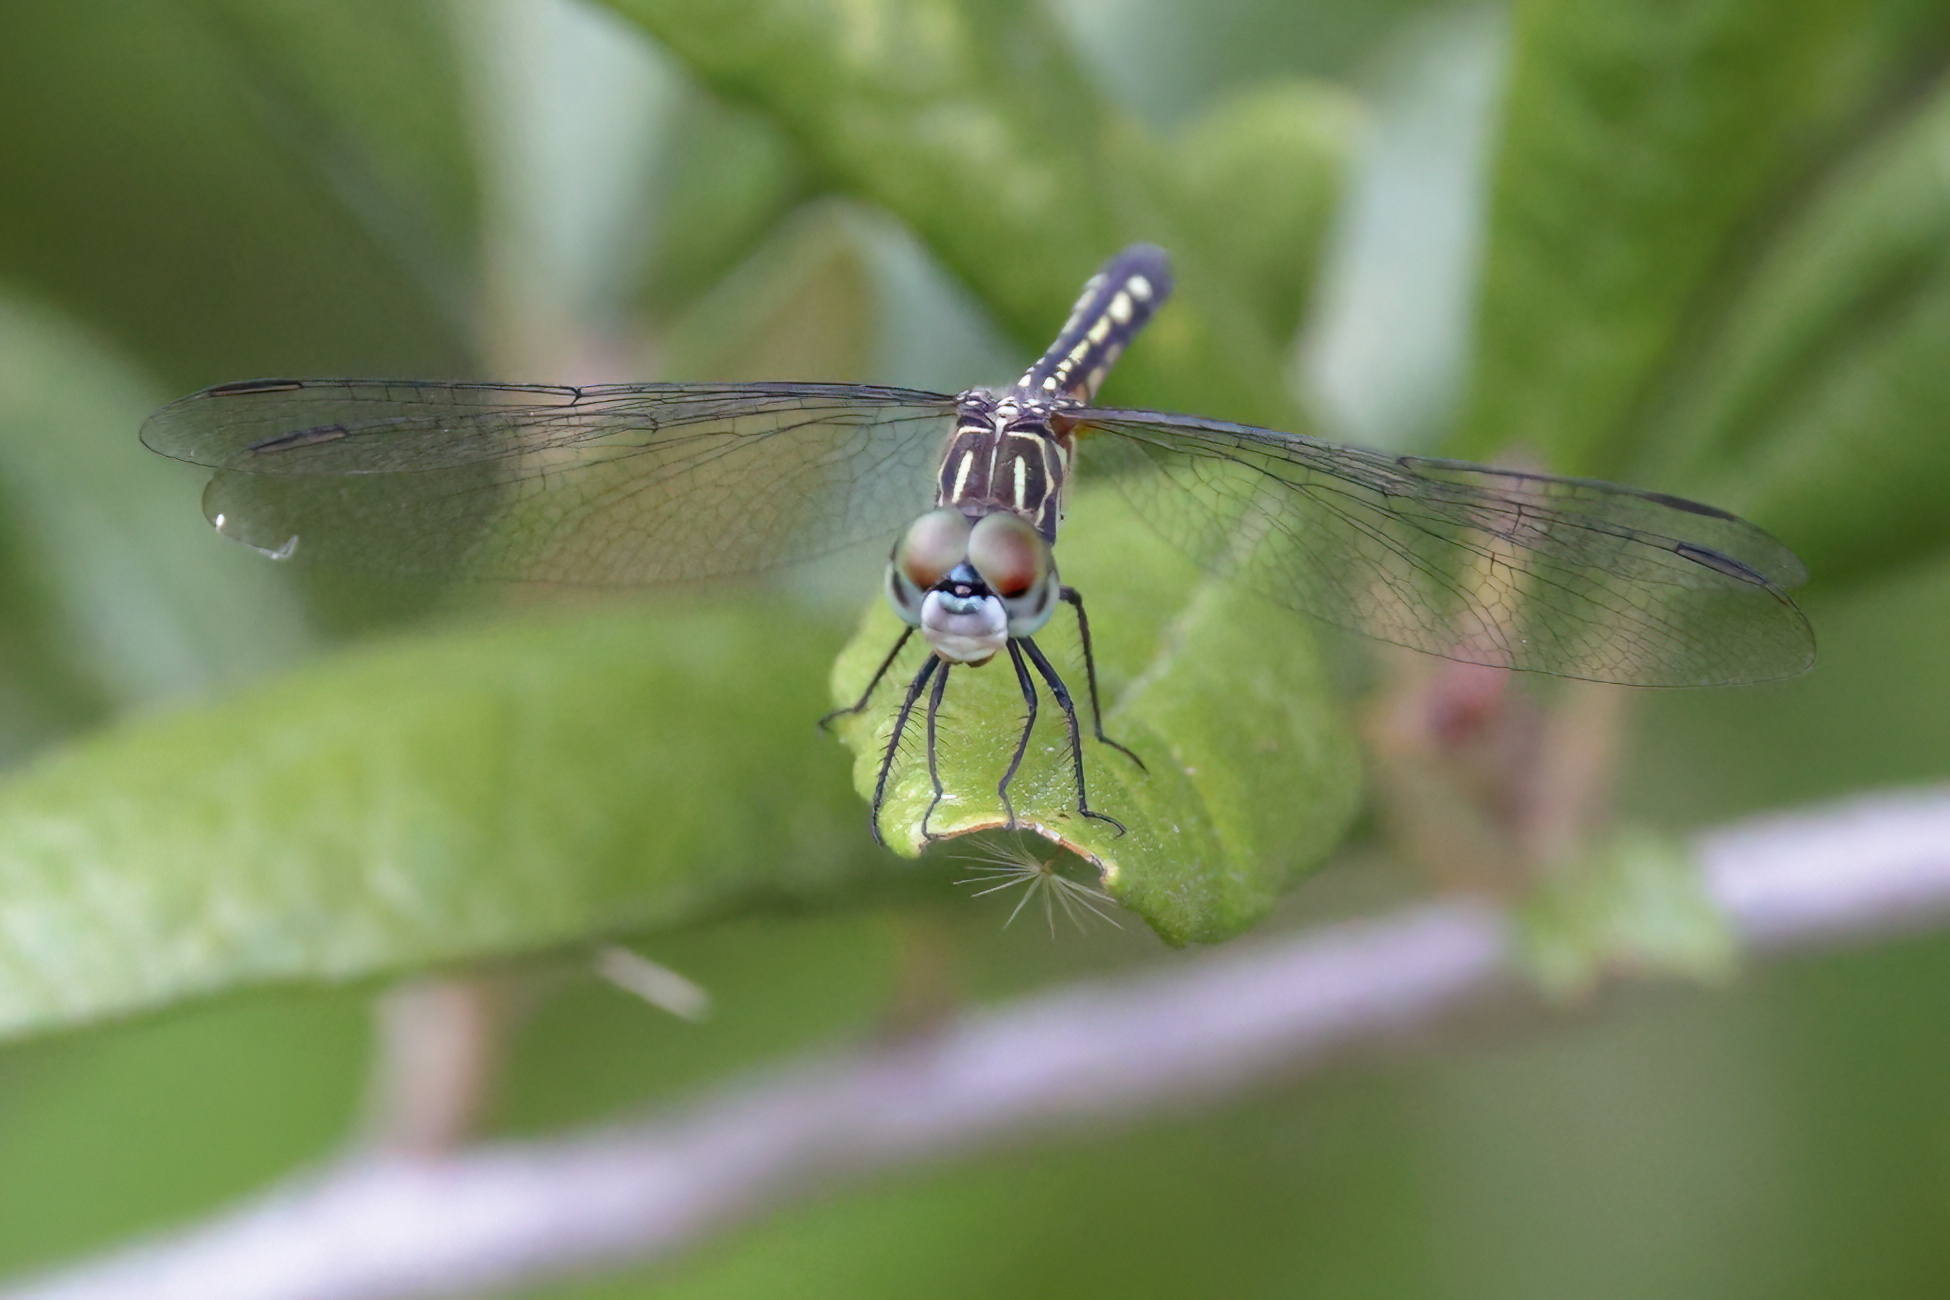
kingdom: Animalia
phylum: Arthropoda
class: Insecta
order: Odonata
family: Libellulidae
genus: Pachydiplax
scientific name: Pachydiplax longipennis
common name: Blue dasher
